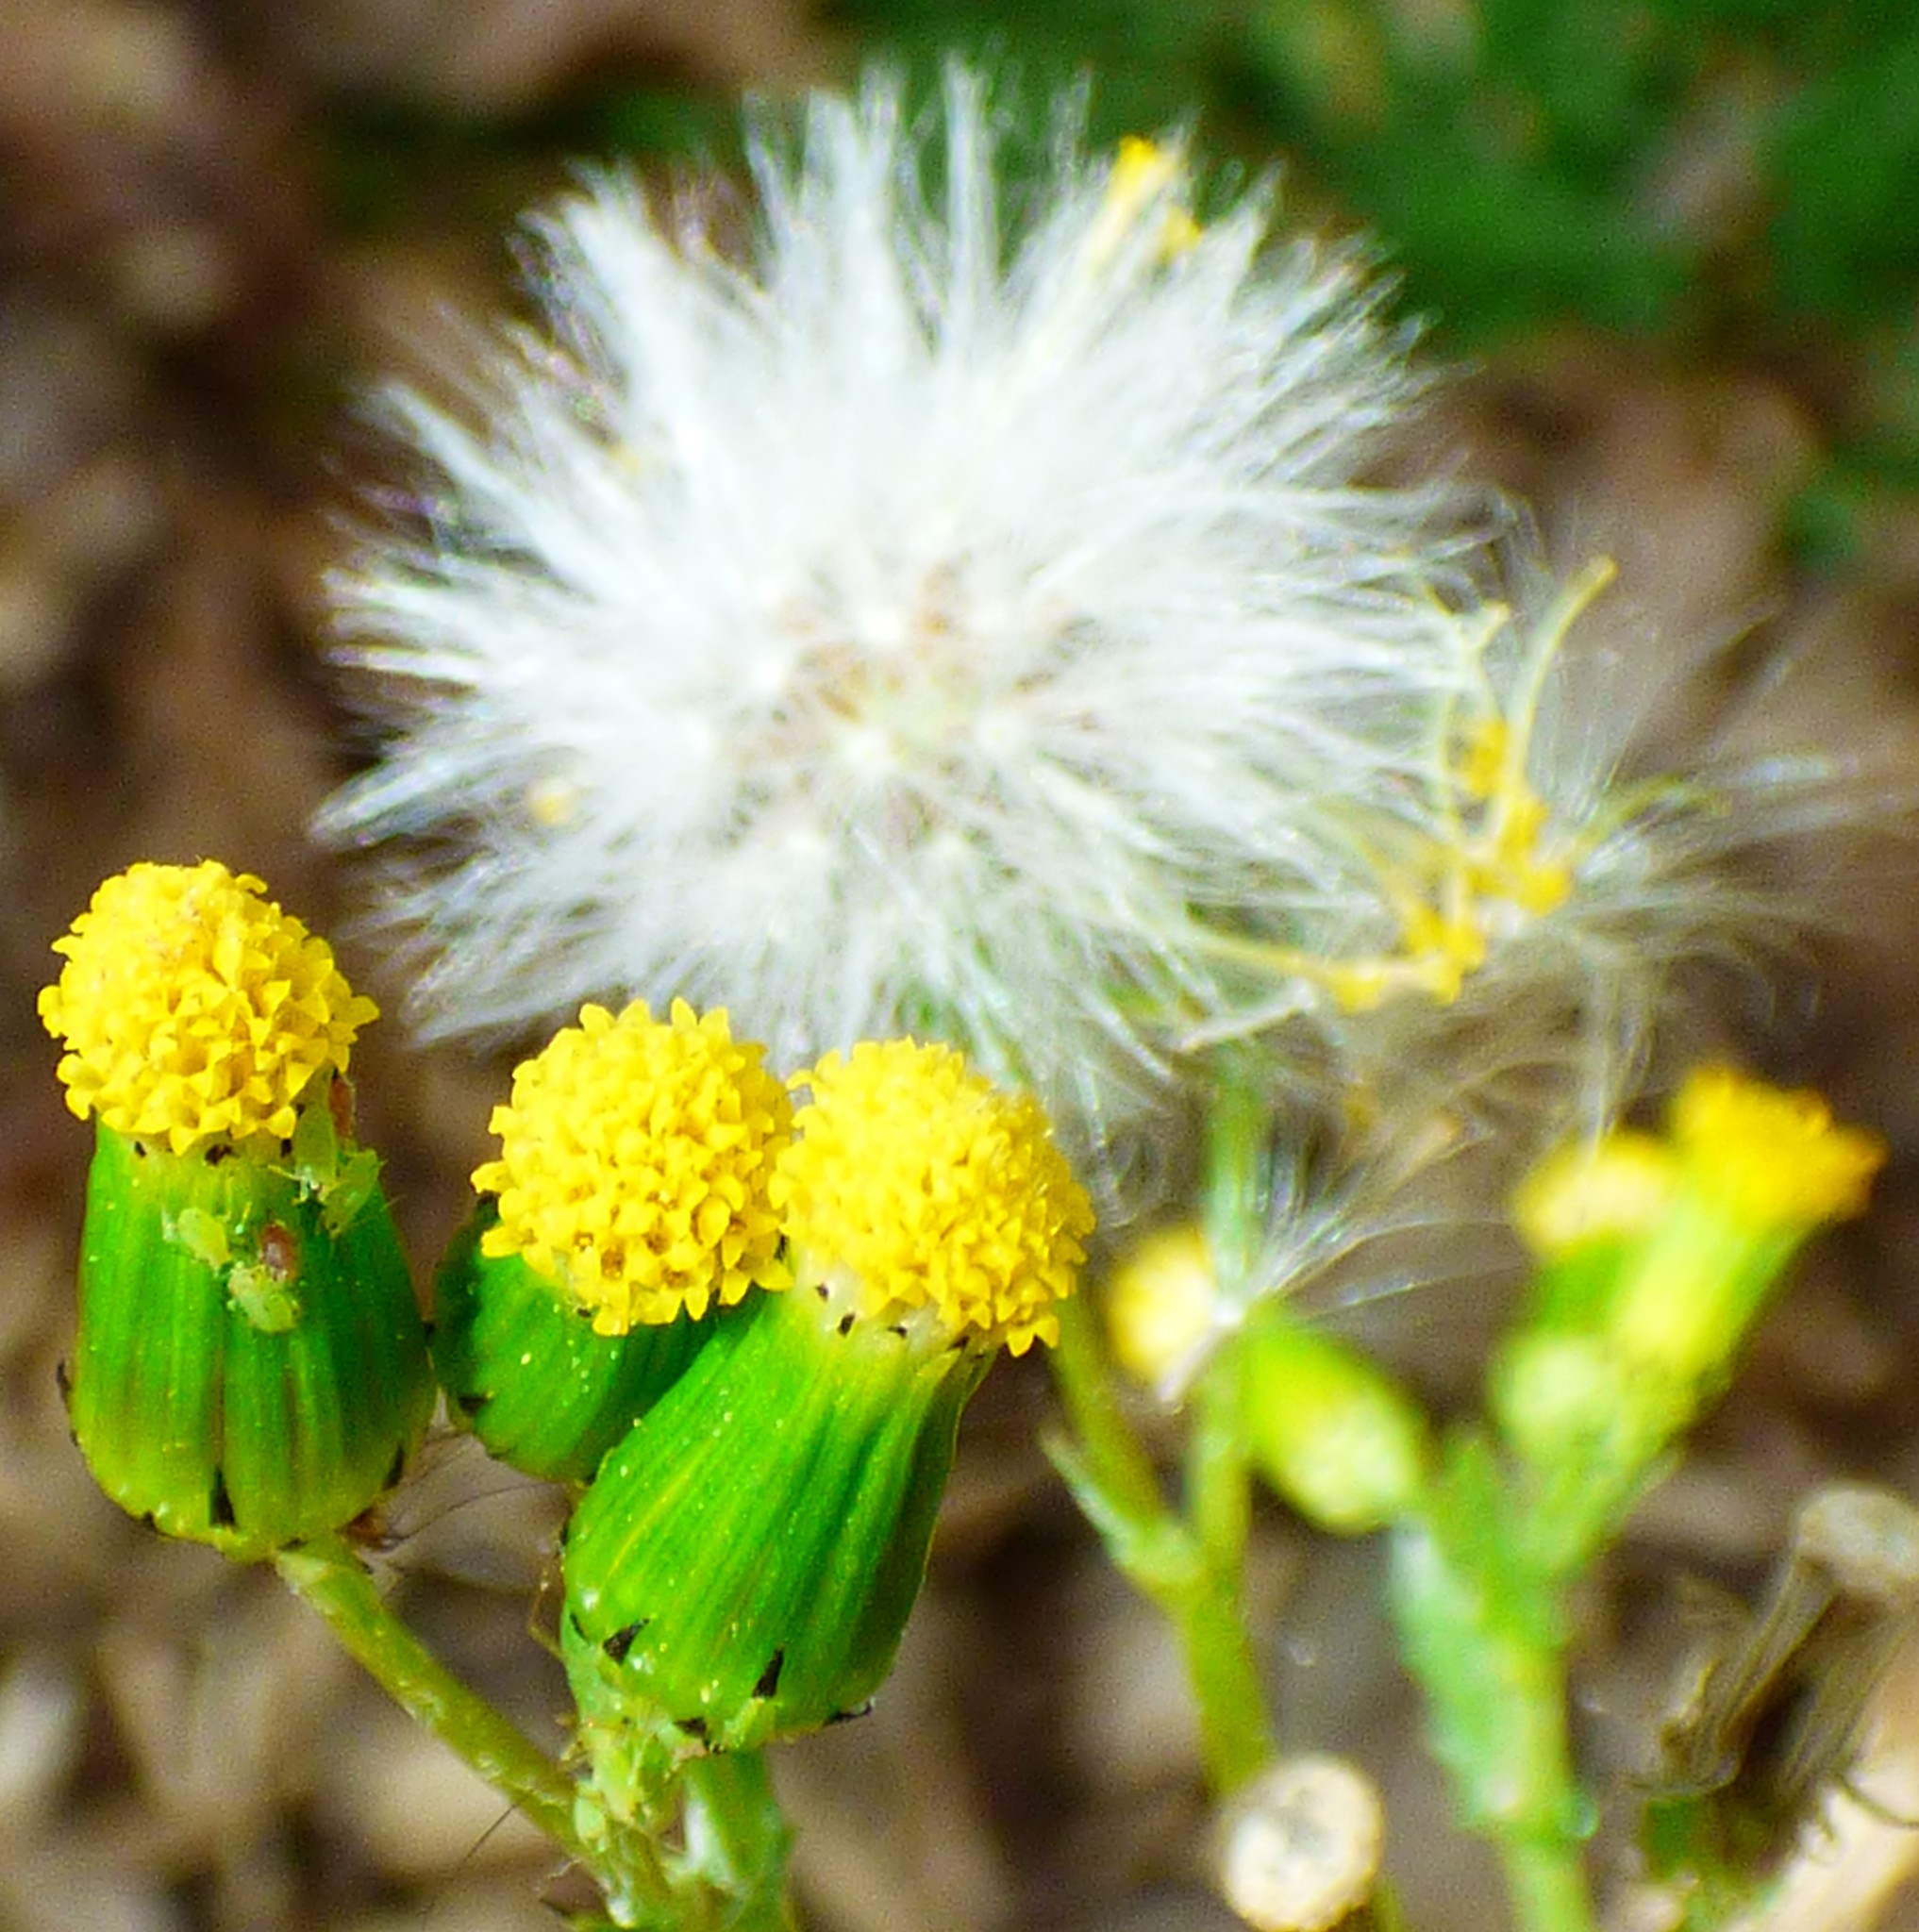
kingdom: Plantae
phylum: Tracheophyta
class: Magnoliopsida
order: Asterales
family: Asteraceae
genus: Senecio
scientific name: Senecio vulgaris
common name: Old-man-in-the-spring
